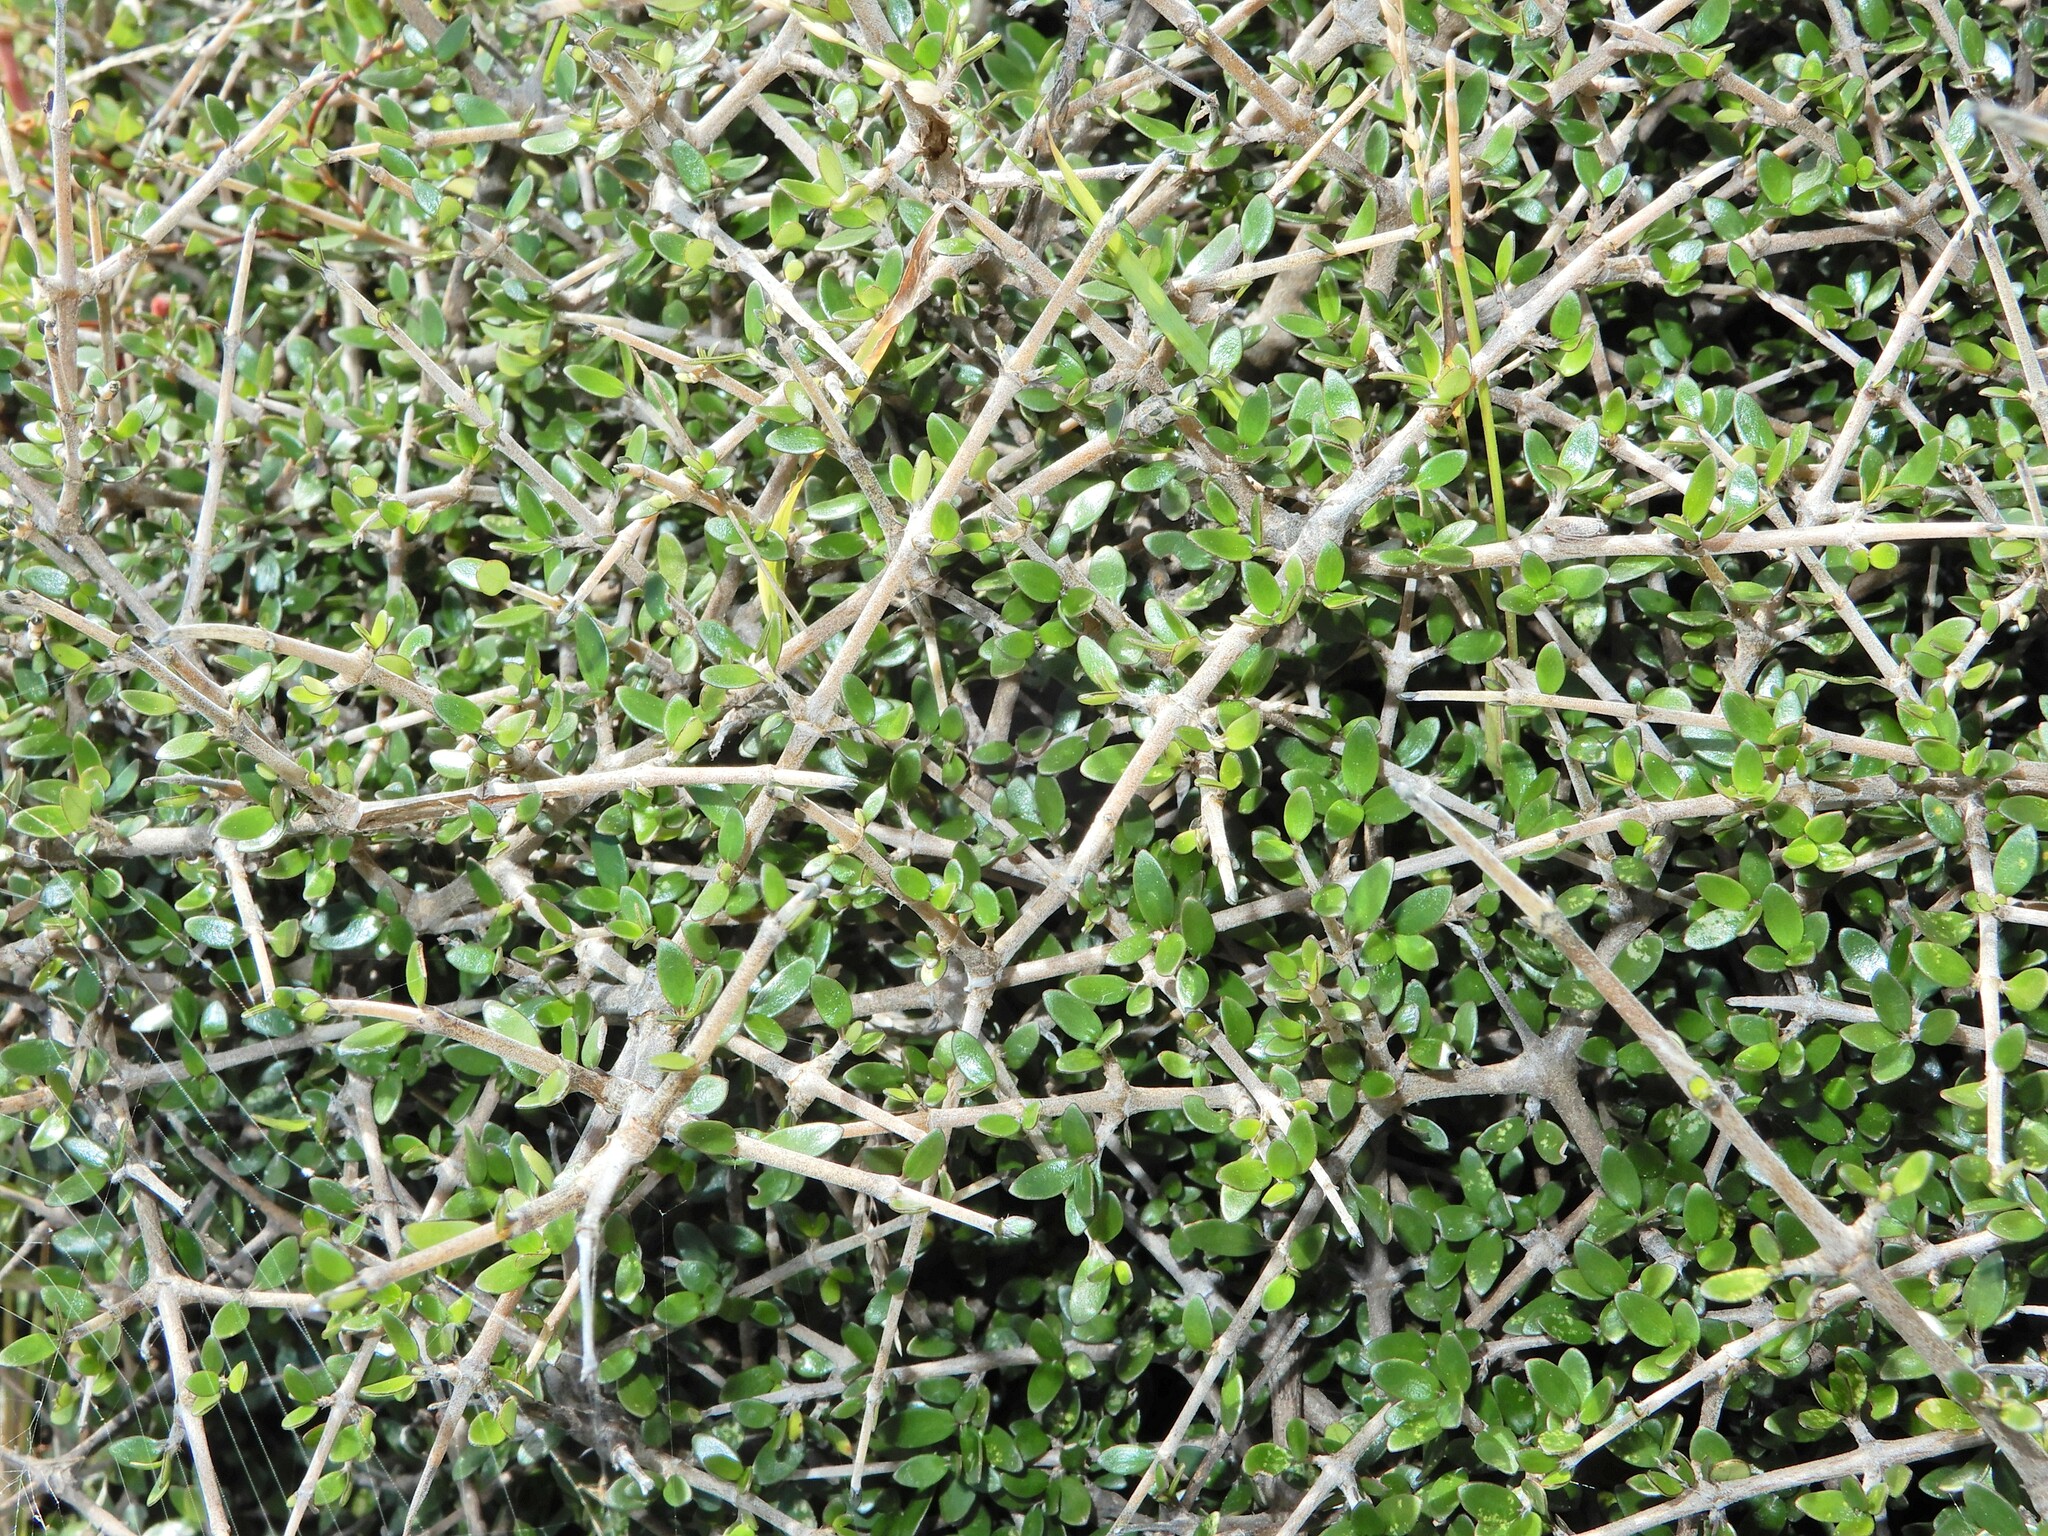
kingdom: Plantae
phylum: Tracheophyta
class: Magnoliopsida
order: Gentianales
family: Rubiaceae
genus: Coprosma
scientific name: Coprosma propinqua
